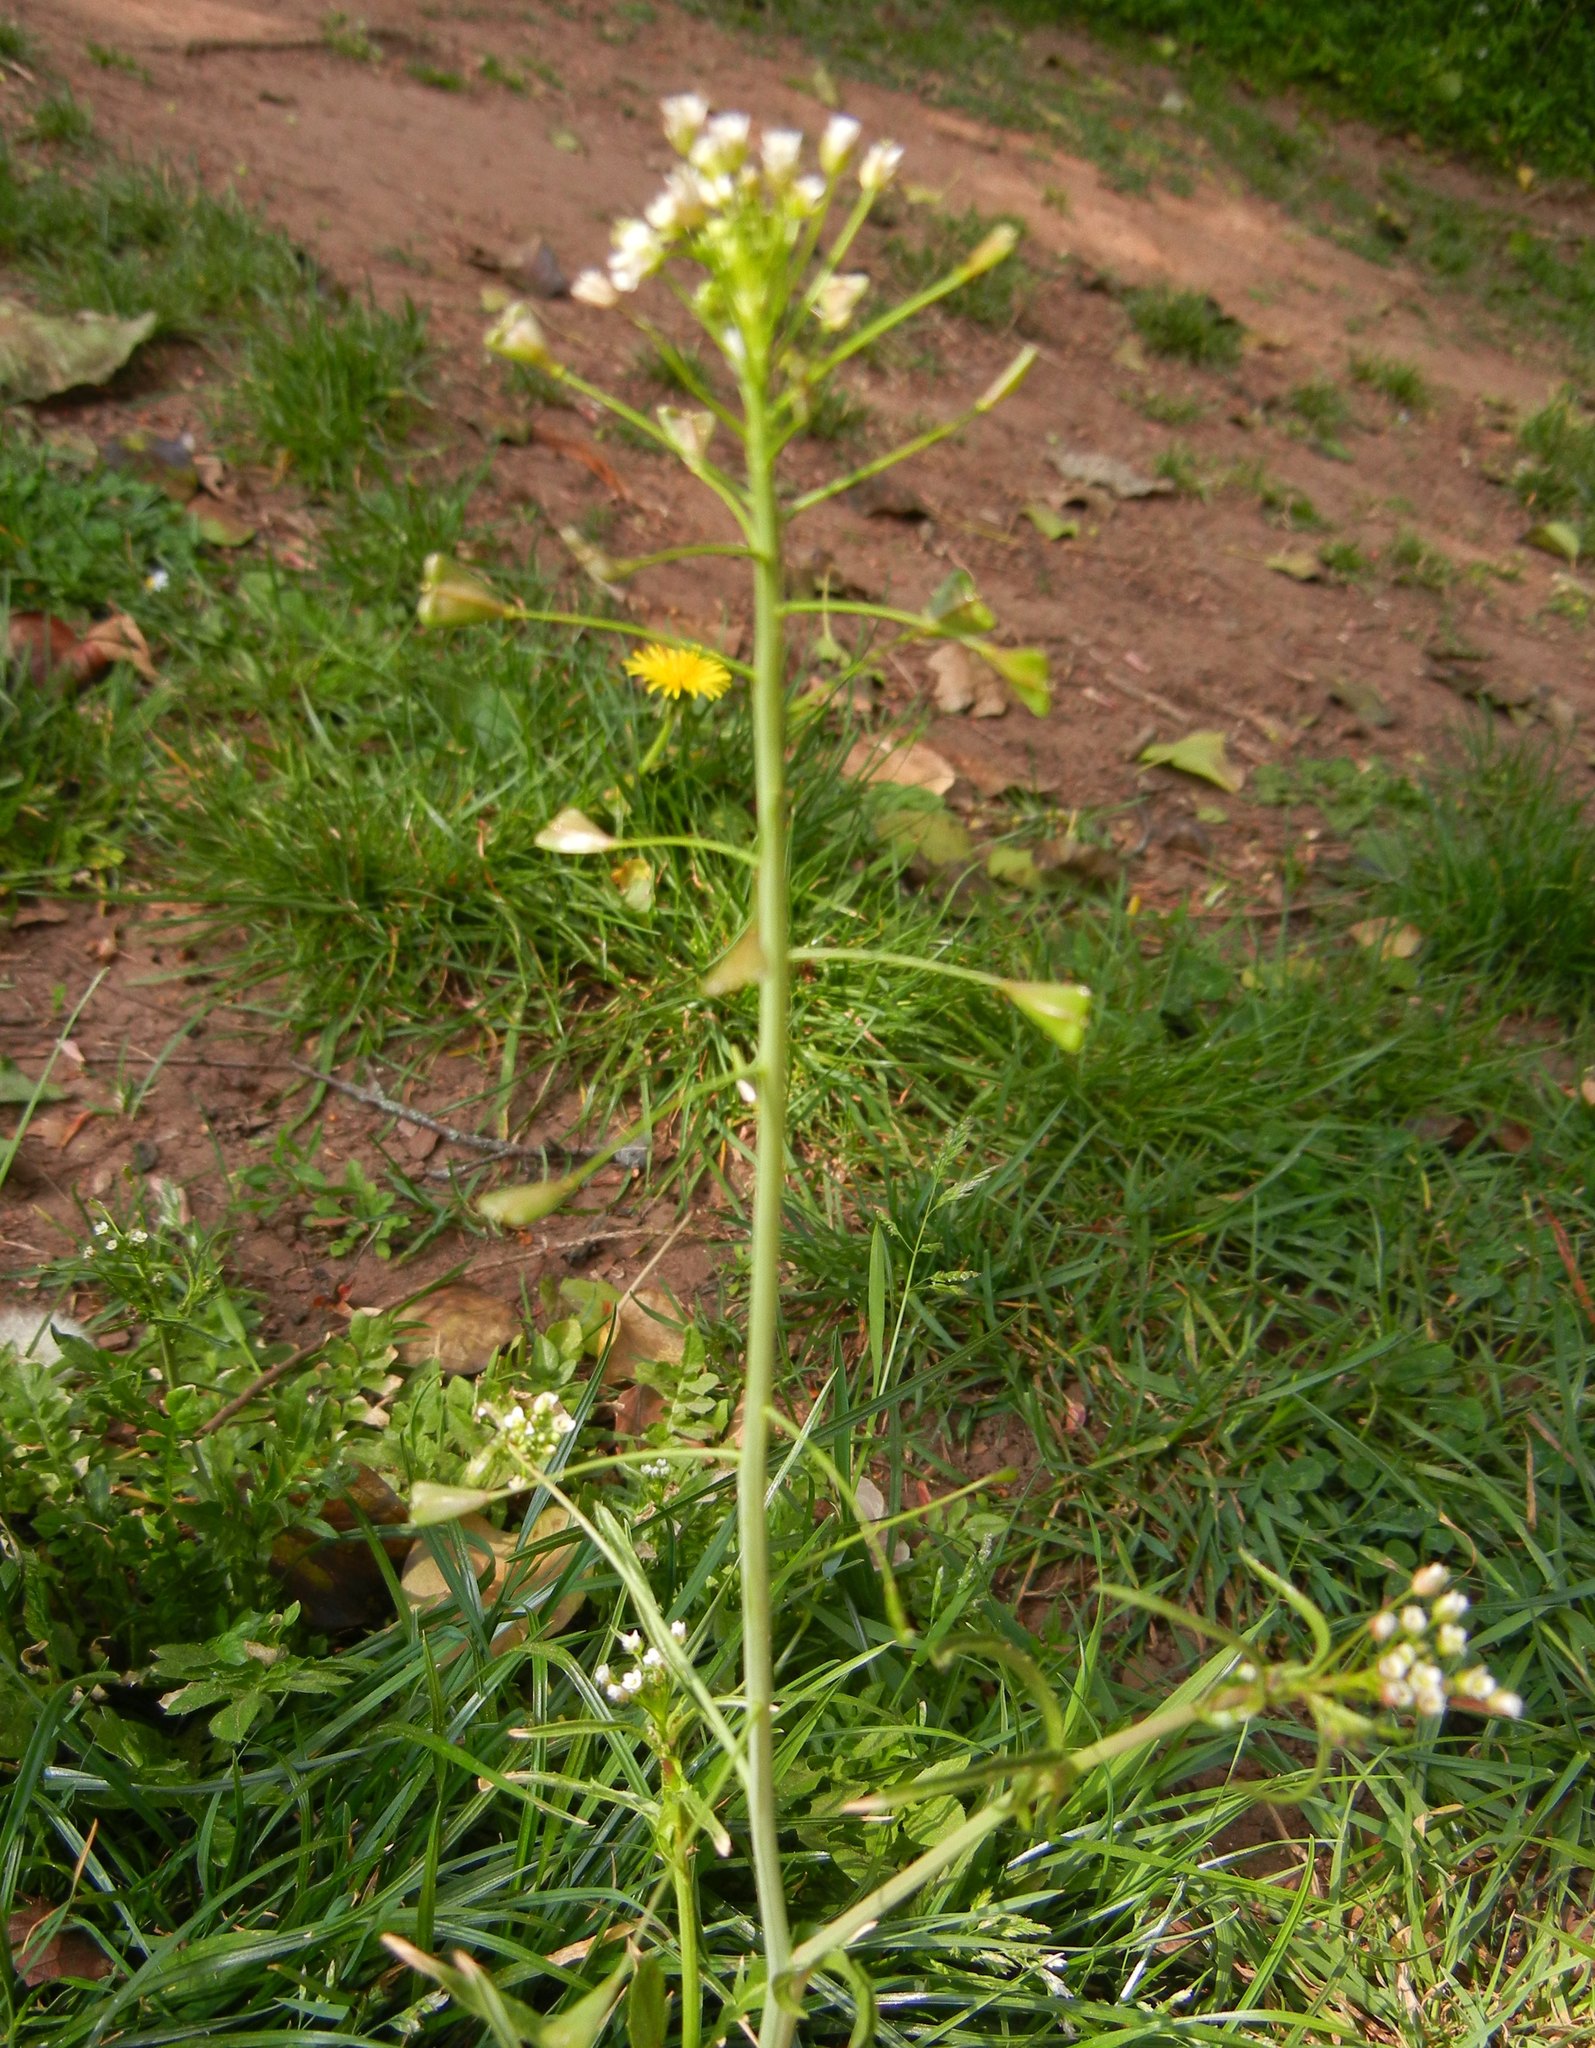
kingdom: Plantae
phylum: Tracheophyta
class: Magnoliopsida
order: Brassicales
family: Brassicaceae
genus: Capsella
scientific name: Capsella bursa-pastoris
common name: Shepherd's purse
